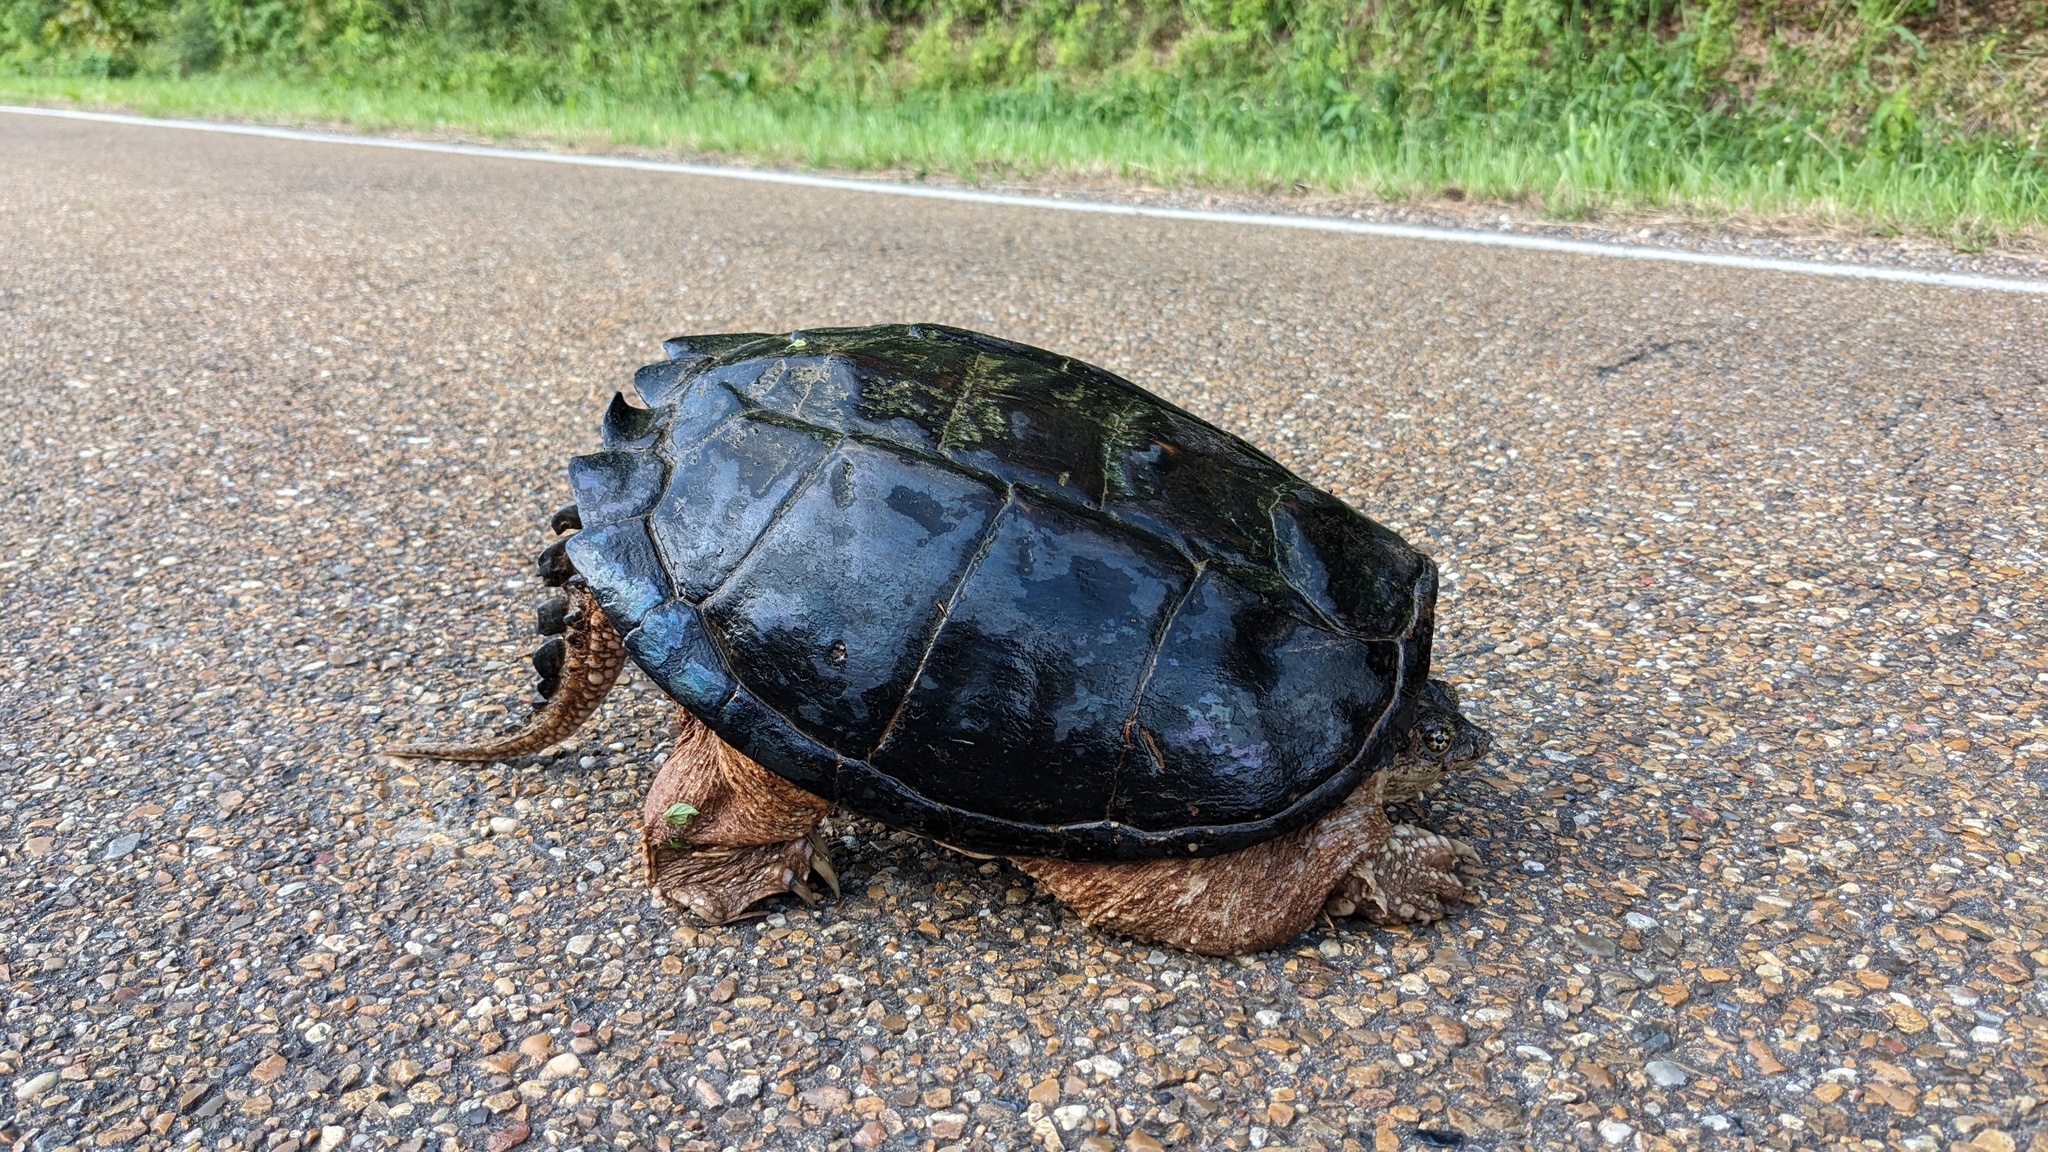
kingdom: Animalia
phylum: Chordata
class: Testudines
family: Chelydridae
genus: Chelydra
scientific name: Chelydra serpentina
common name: Common snapping turtle
